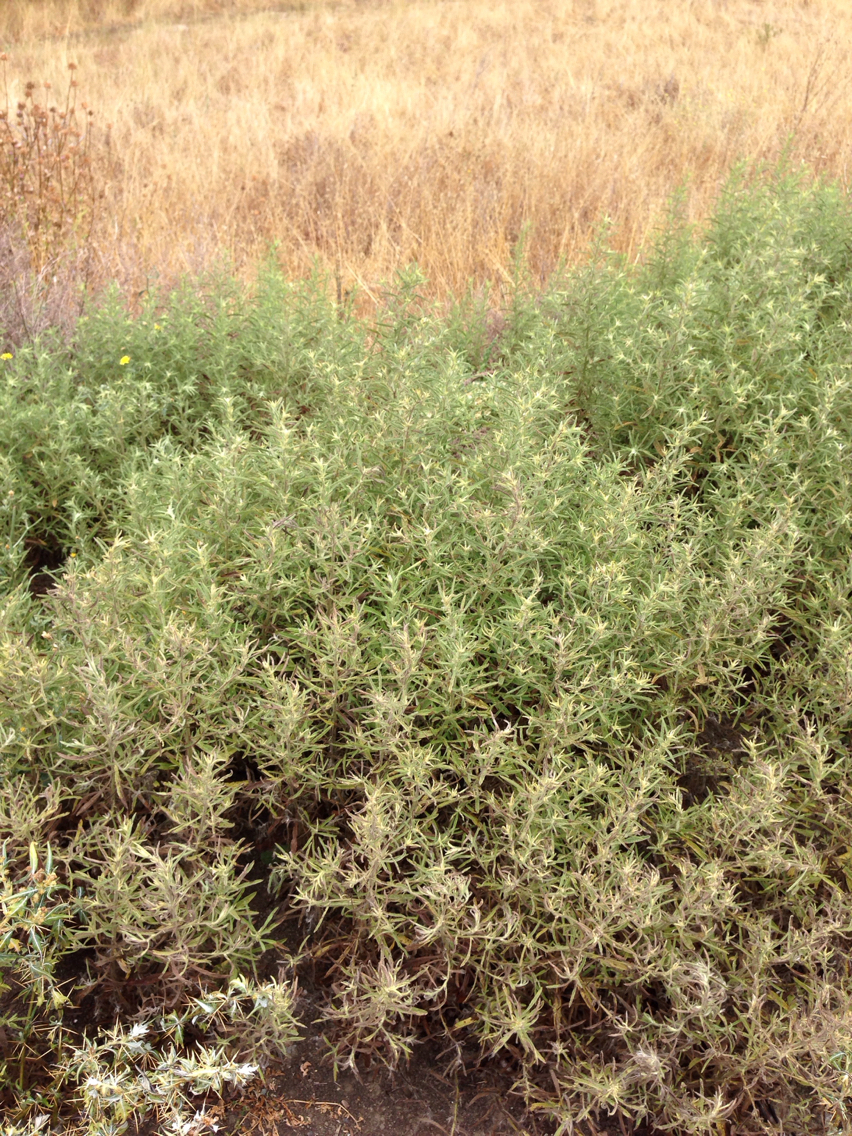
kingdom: Plantae
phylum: Tracheophyta
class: Magnoliopsida
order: Asterales
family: Asteraceae
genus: Dittrichia
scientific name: Dittrichia graveolens
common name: Stinking fleabane
